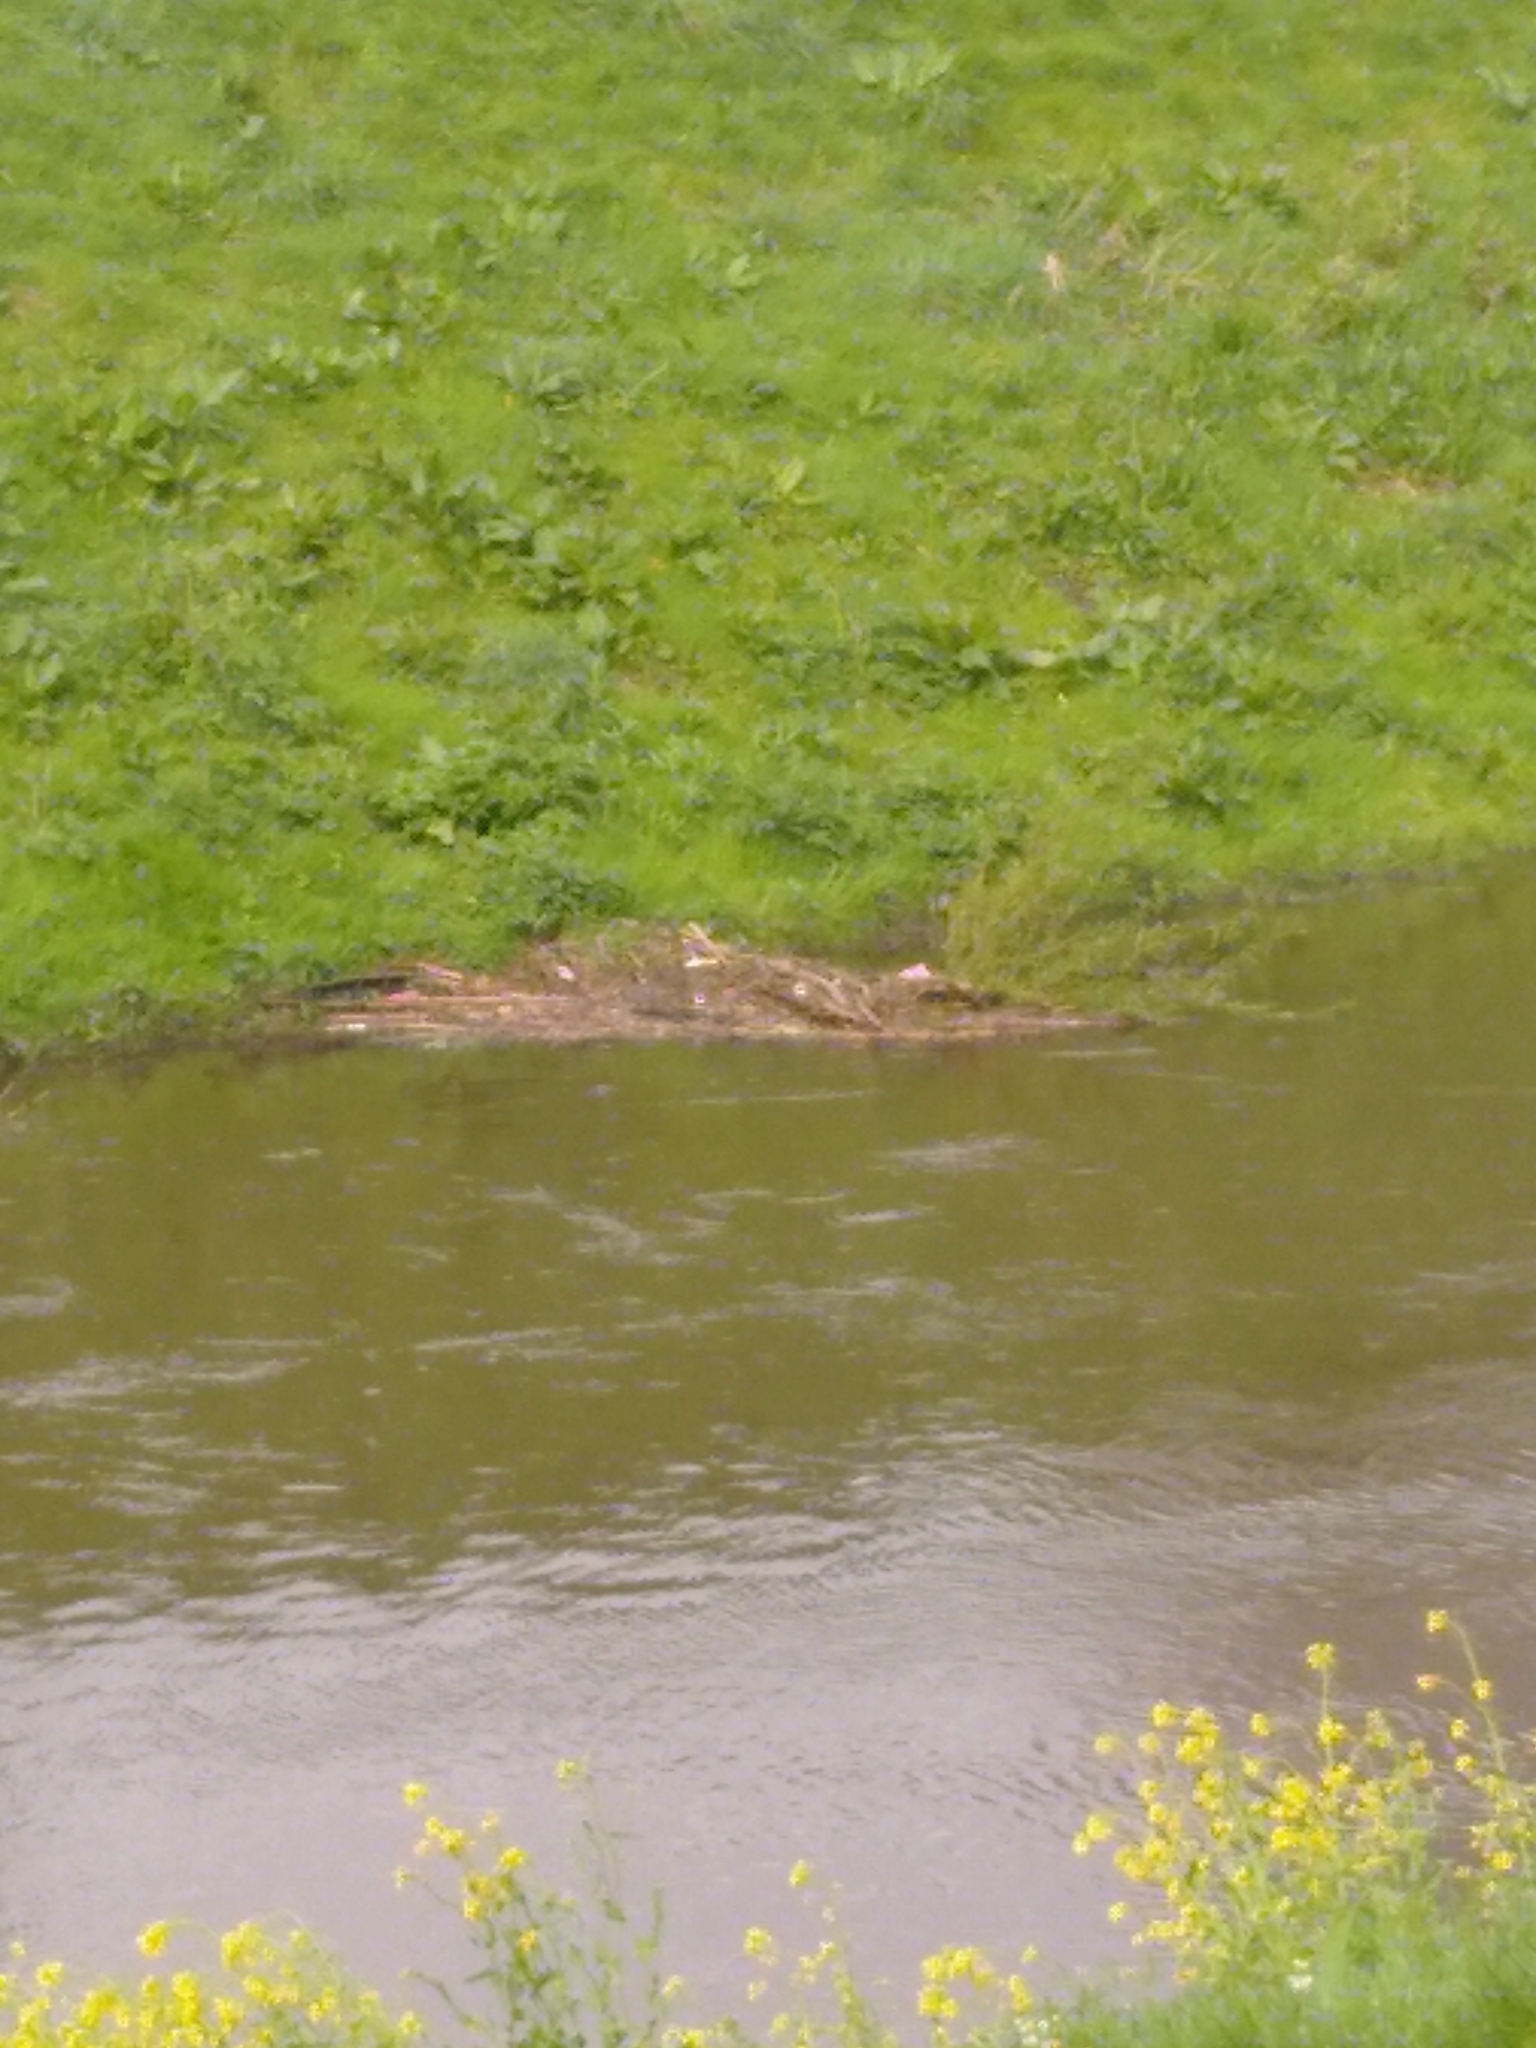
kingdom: Animalia
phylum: Chordata
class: Aves
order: Passeriformes
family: Motacillidae
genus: Motacilla
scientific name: Motacilla cinerea
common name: Grey wagtail
